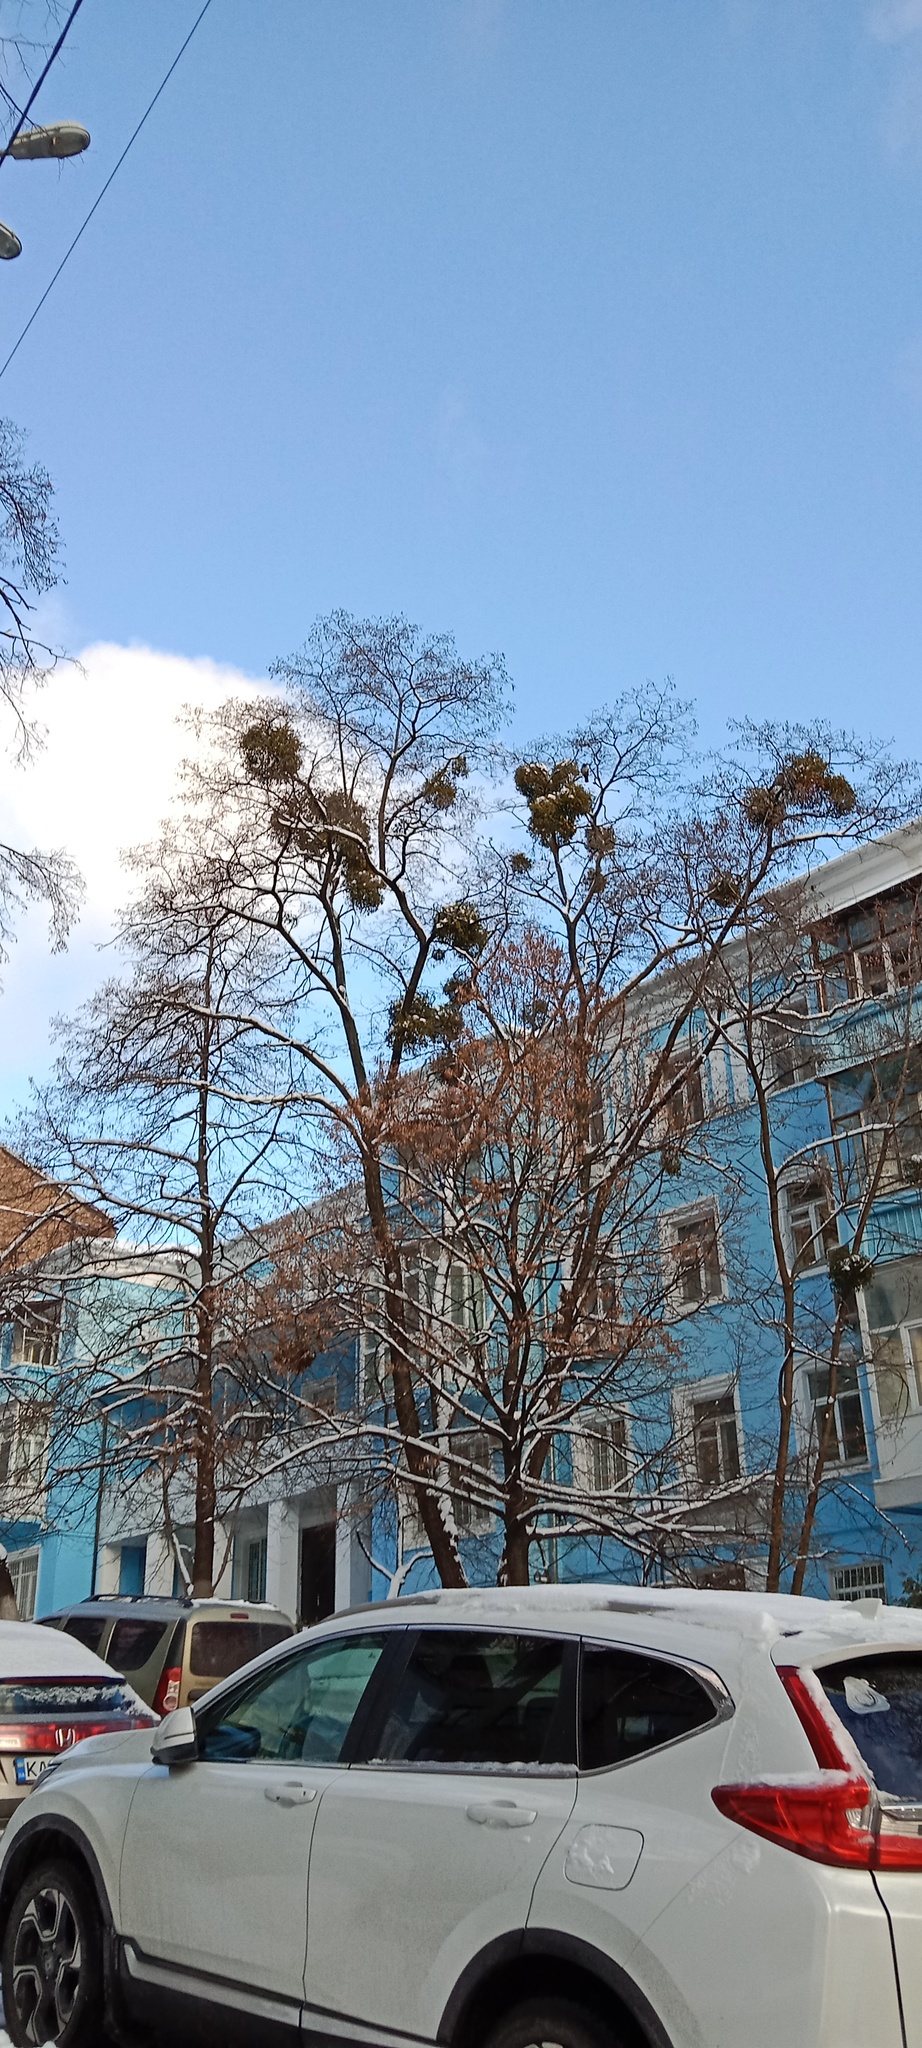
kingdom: Plantae
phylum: Tracheophyta
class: Magnoliopsida
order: Santalales
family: Viscaceae
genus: Viscum
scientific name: Viscum album
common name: Mistletoe
